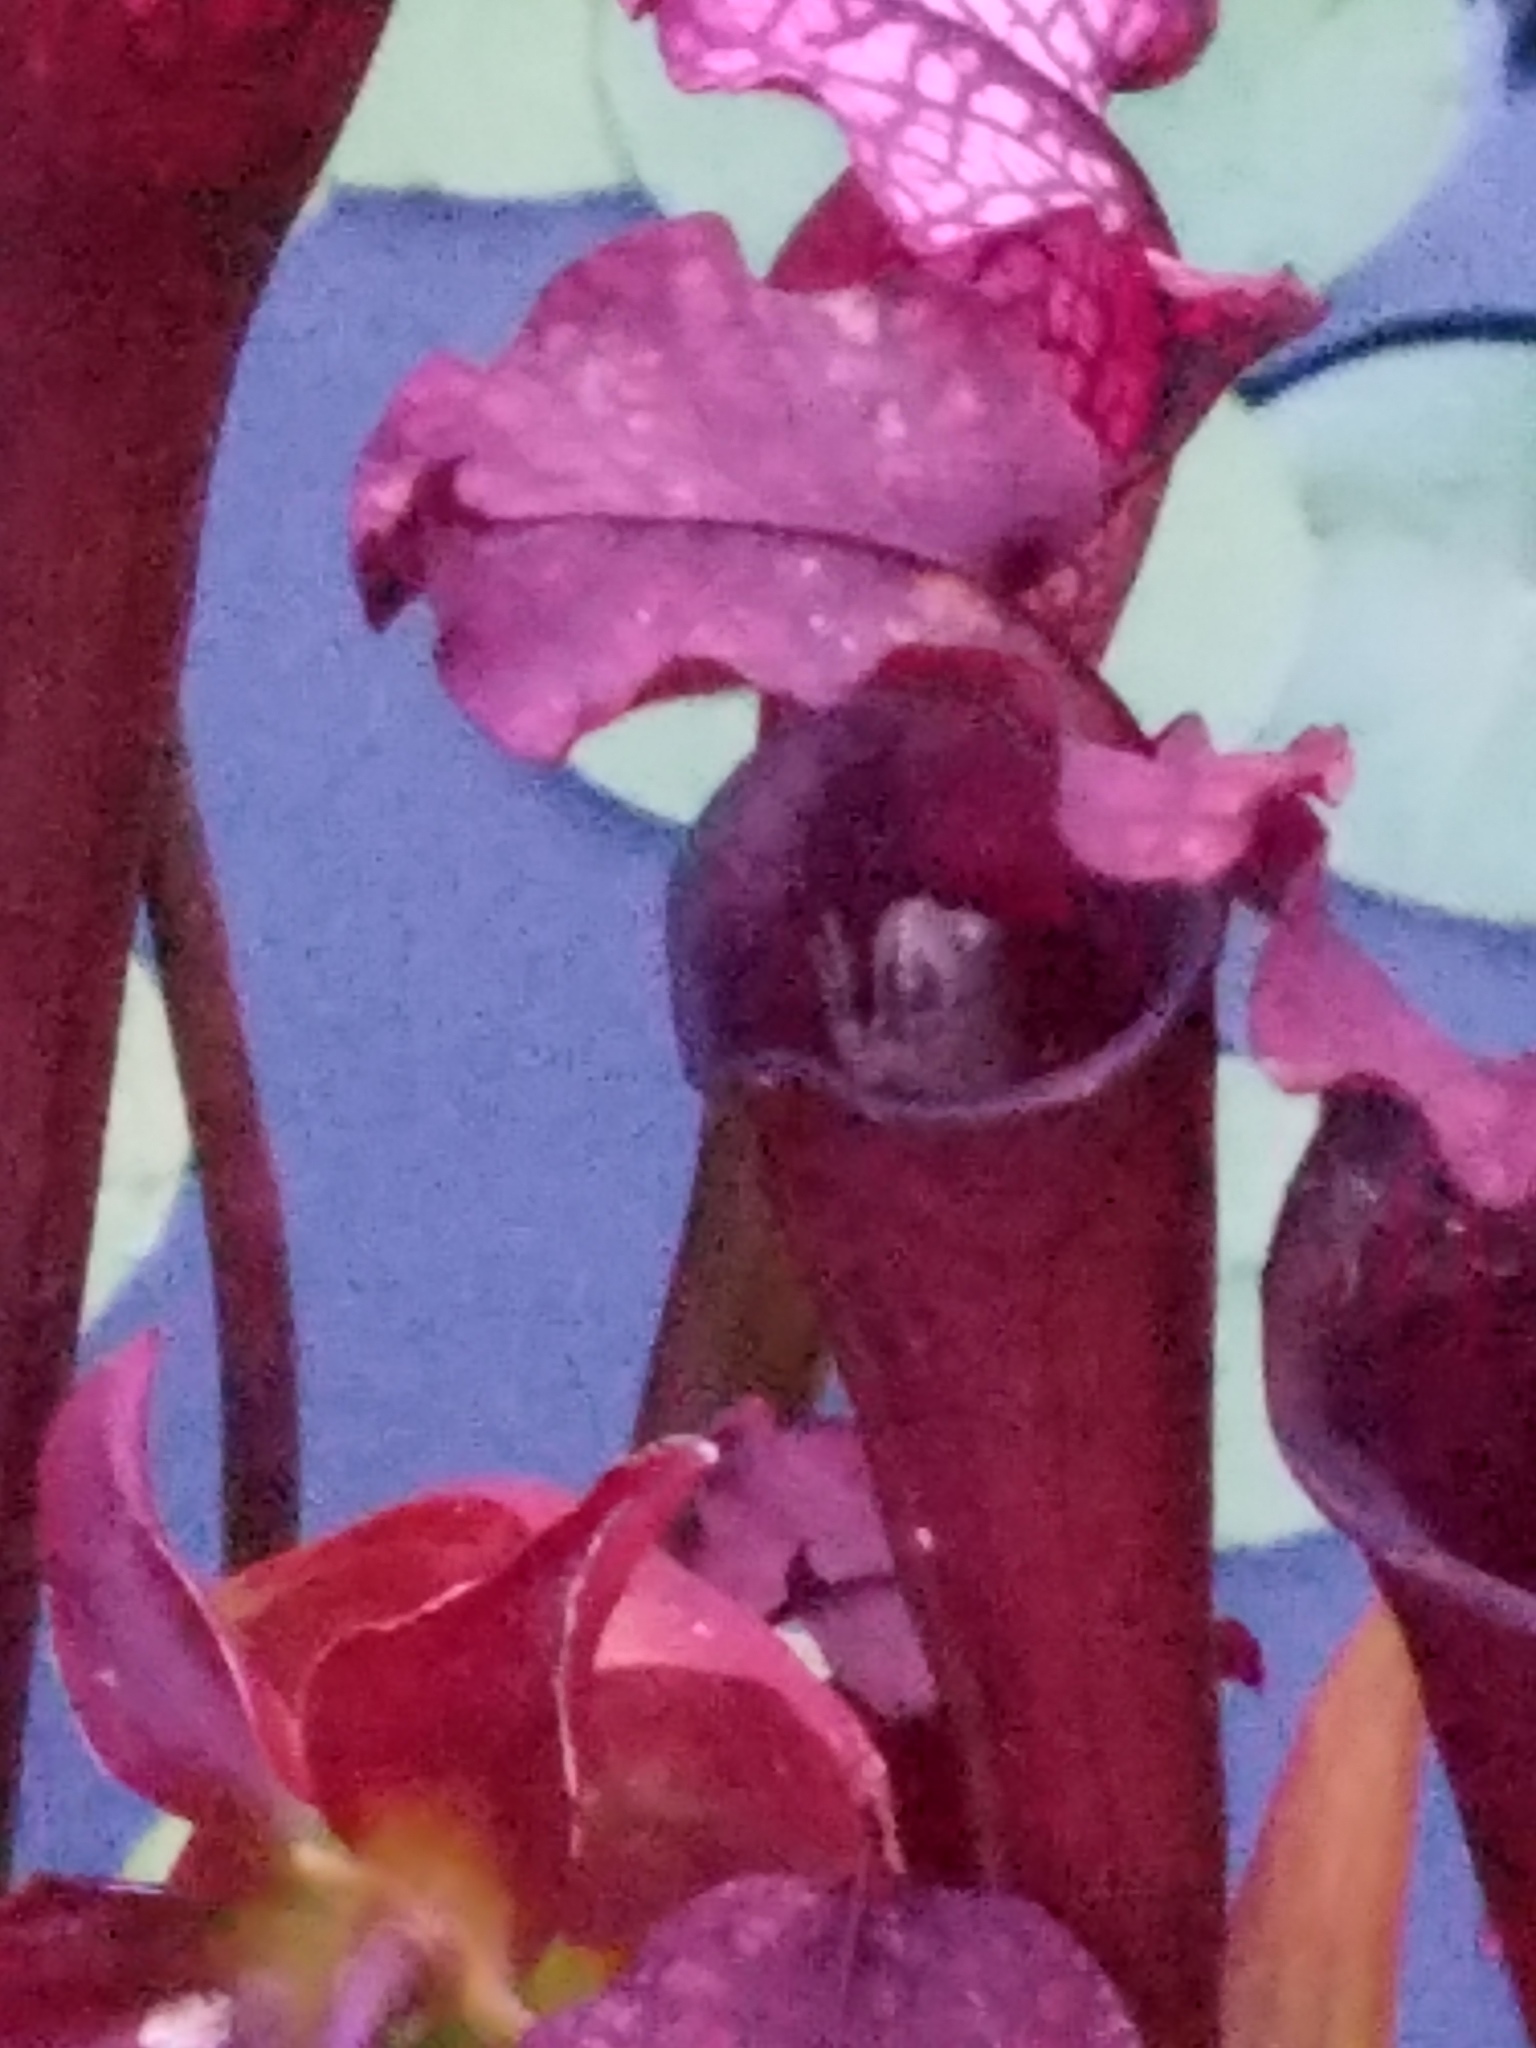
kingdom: Animalia
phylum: Chordata
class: Amphibia
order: Anura
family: Hylidae
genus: Dryophytes
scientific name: Dryophytes chrysoscelis
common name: Cope's gray treefrog
